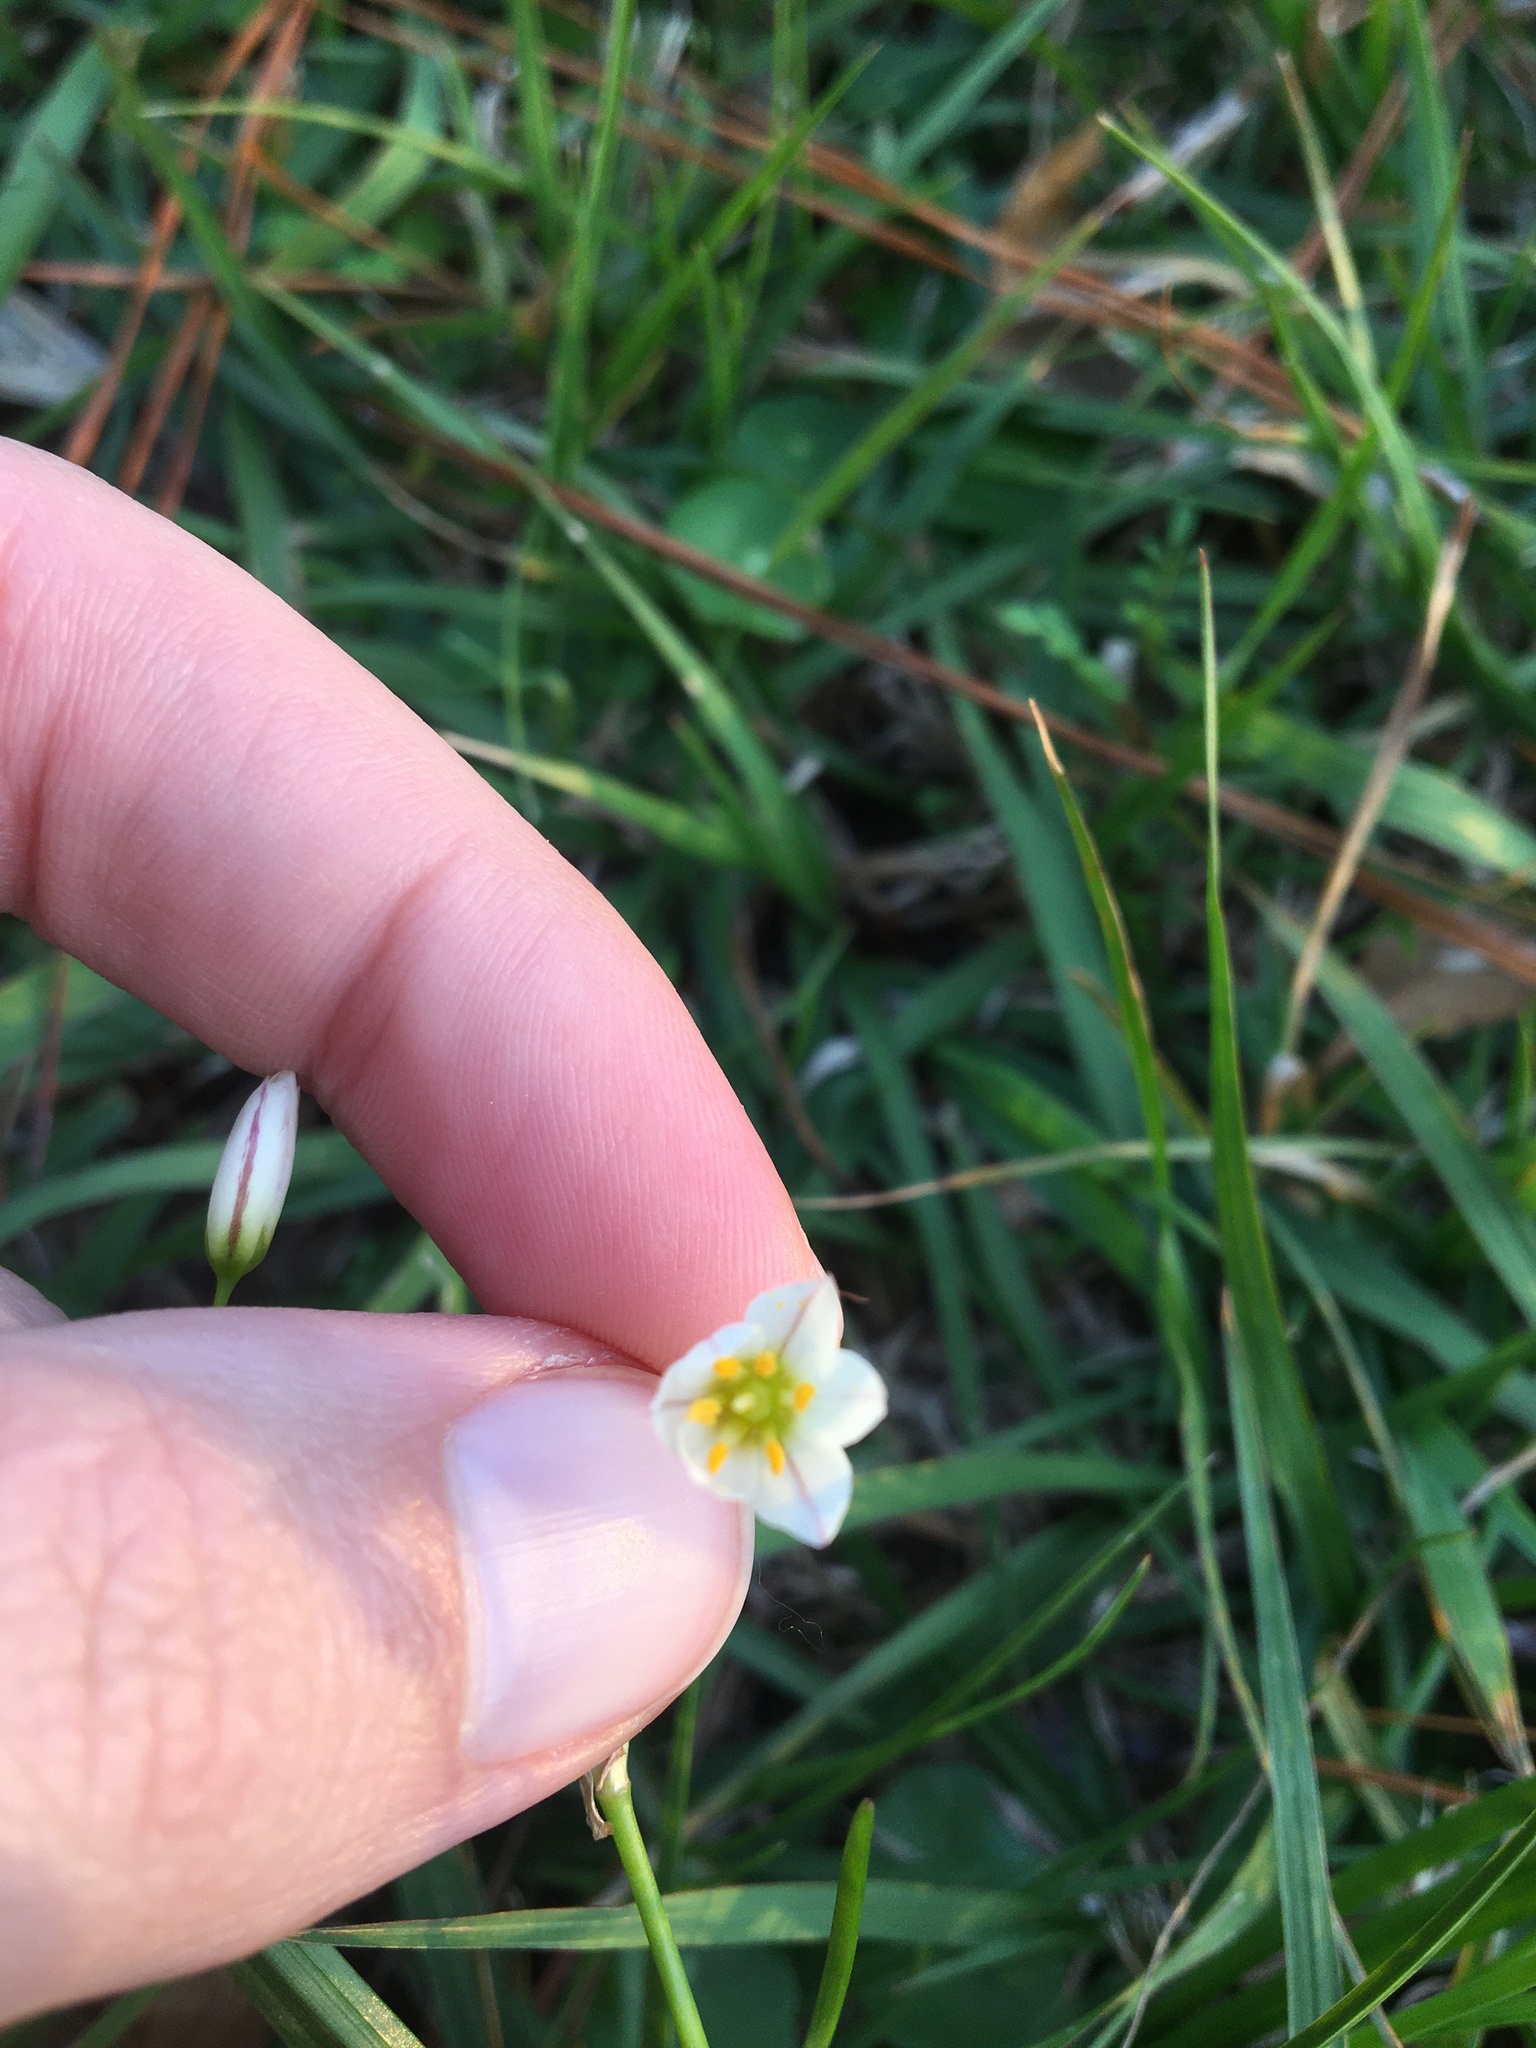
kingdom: Plantae
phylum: Tracheophyta
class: Liliopsida
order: Asparagales
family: Amaryllidaceae
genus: Nothoscordum
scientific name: Nothoscordum bivalve
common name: Crow-poison
